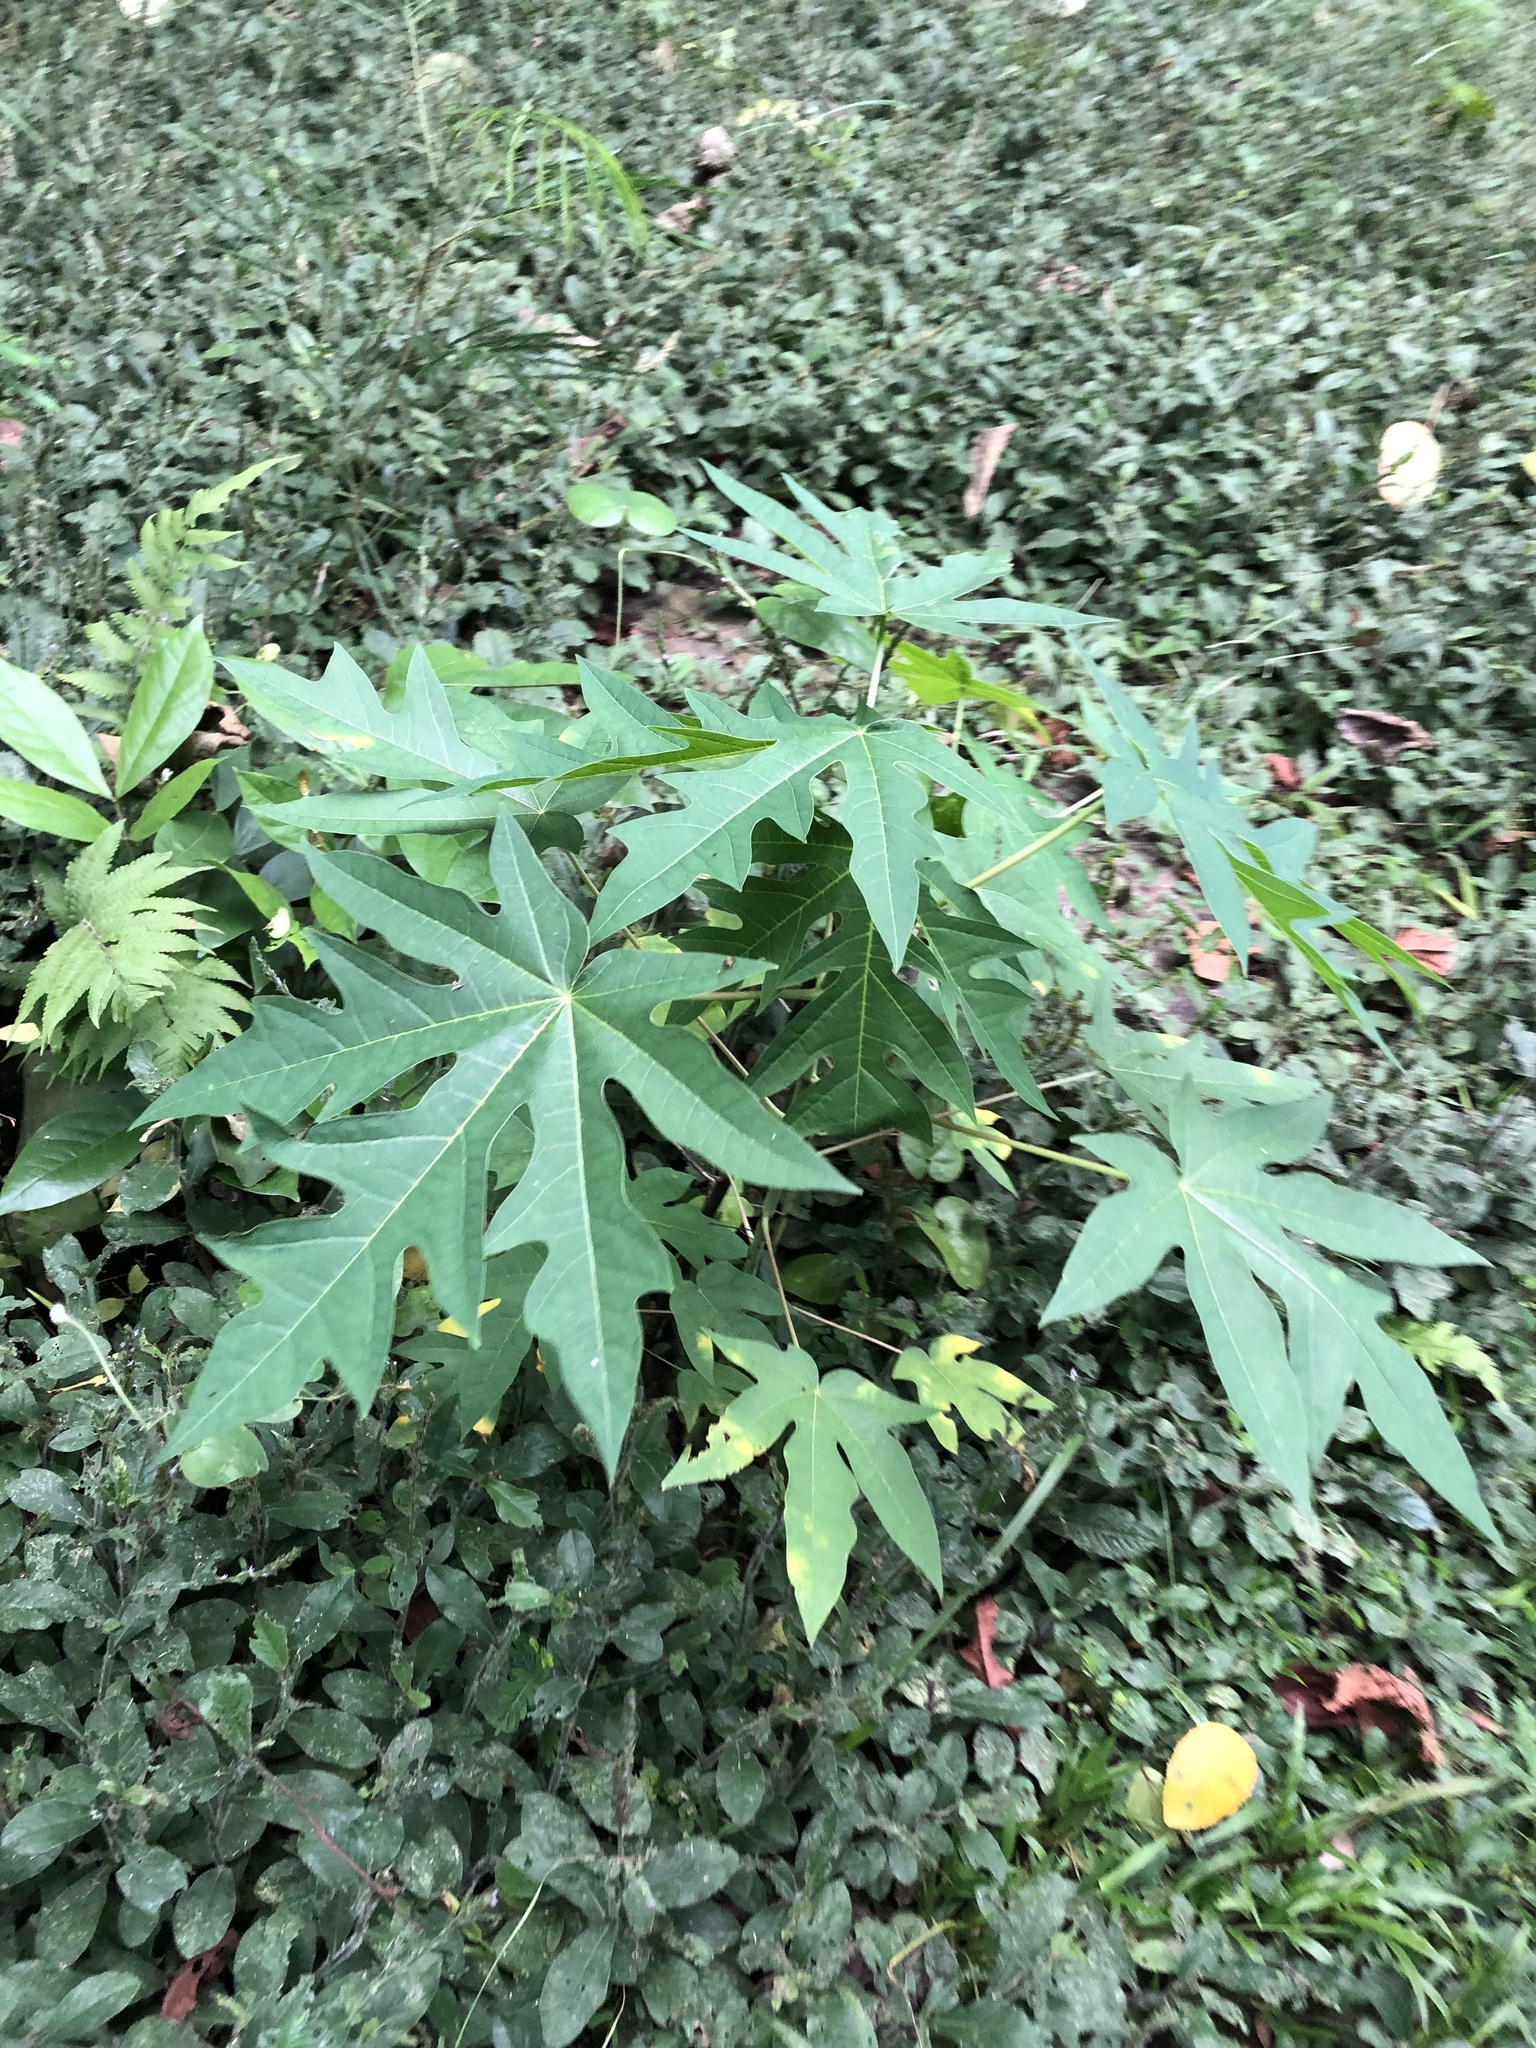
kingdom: Plantae
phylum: Tracheophyta
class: Magnoliopsida
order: Brassicales
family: Caricaceae
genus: Carica
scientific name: Carica papaya
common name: Papaya
